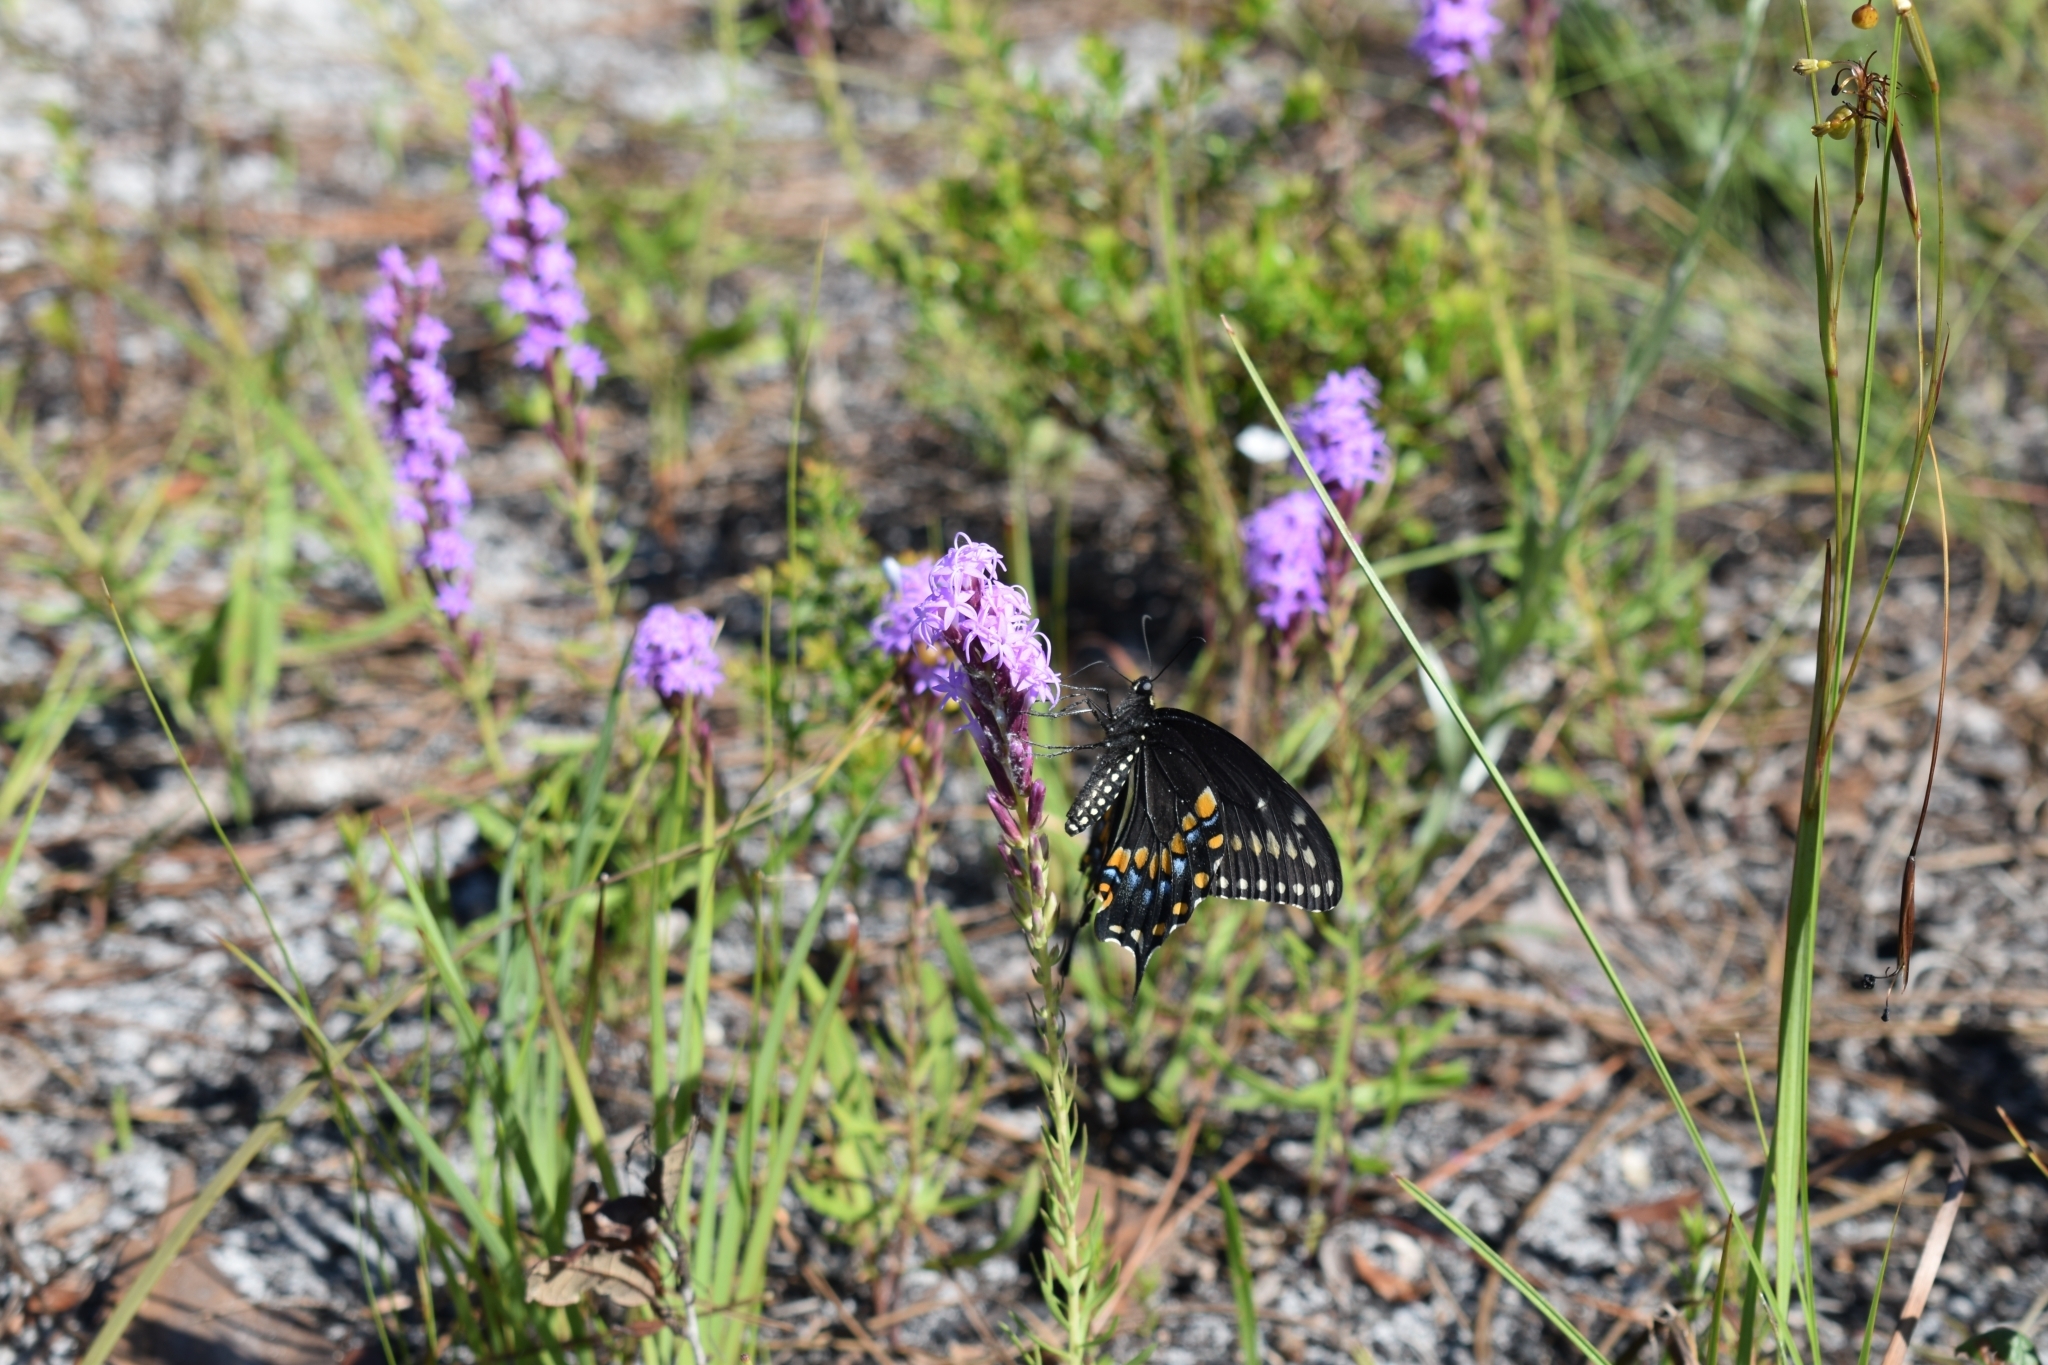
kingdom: Animalia
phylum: Arthropoda
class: Insecta
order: Lepidoptera
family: Papilionidae
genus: Papilio
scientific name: Papilio polyxenes
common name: Black swallowtail
